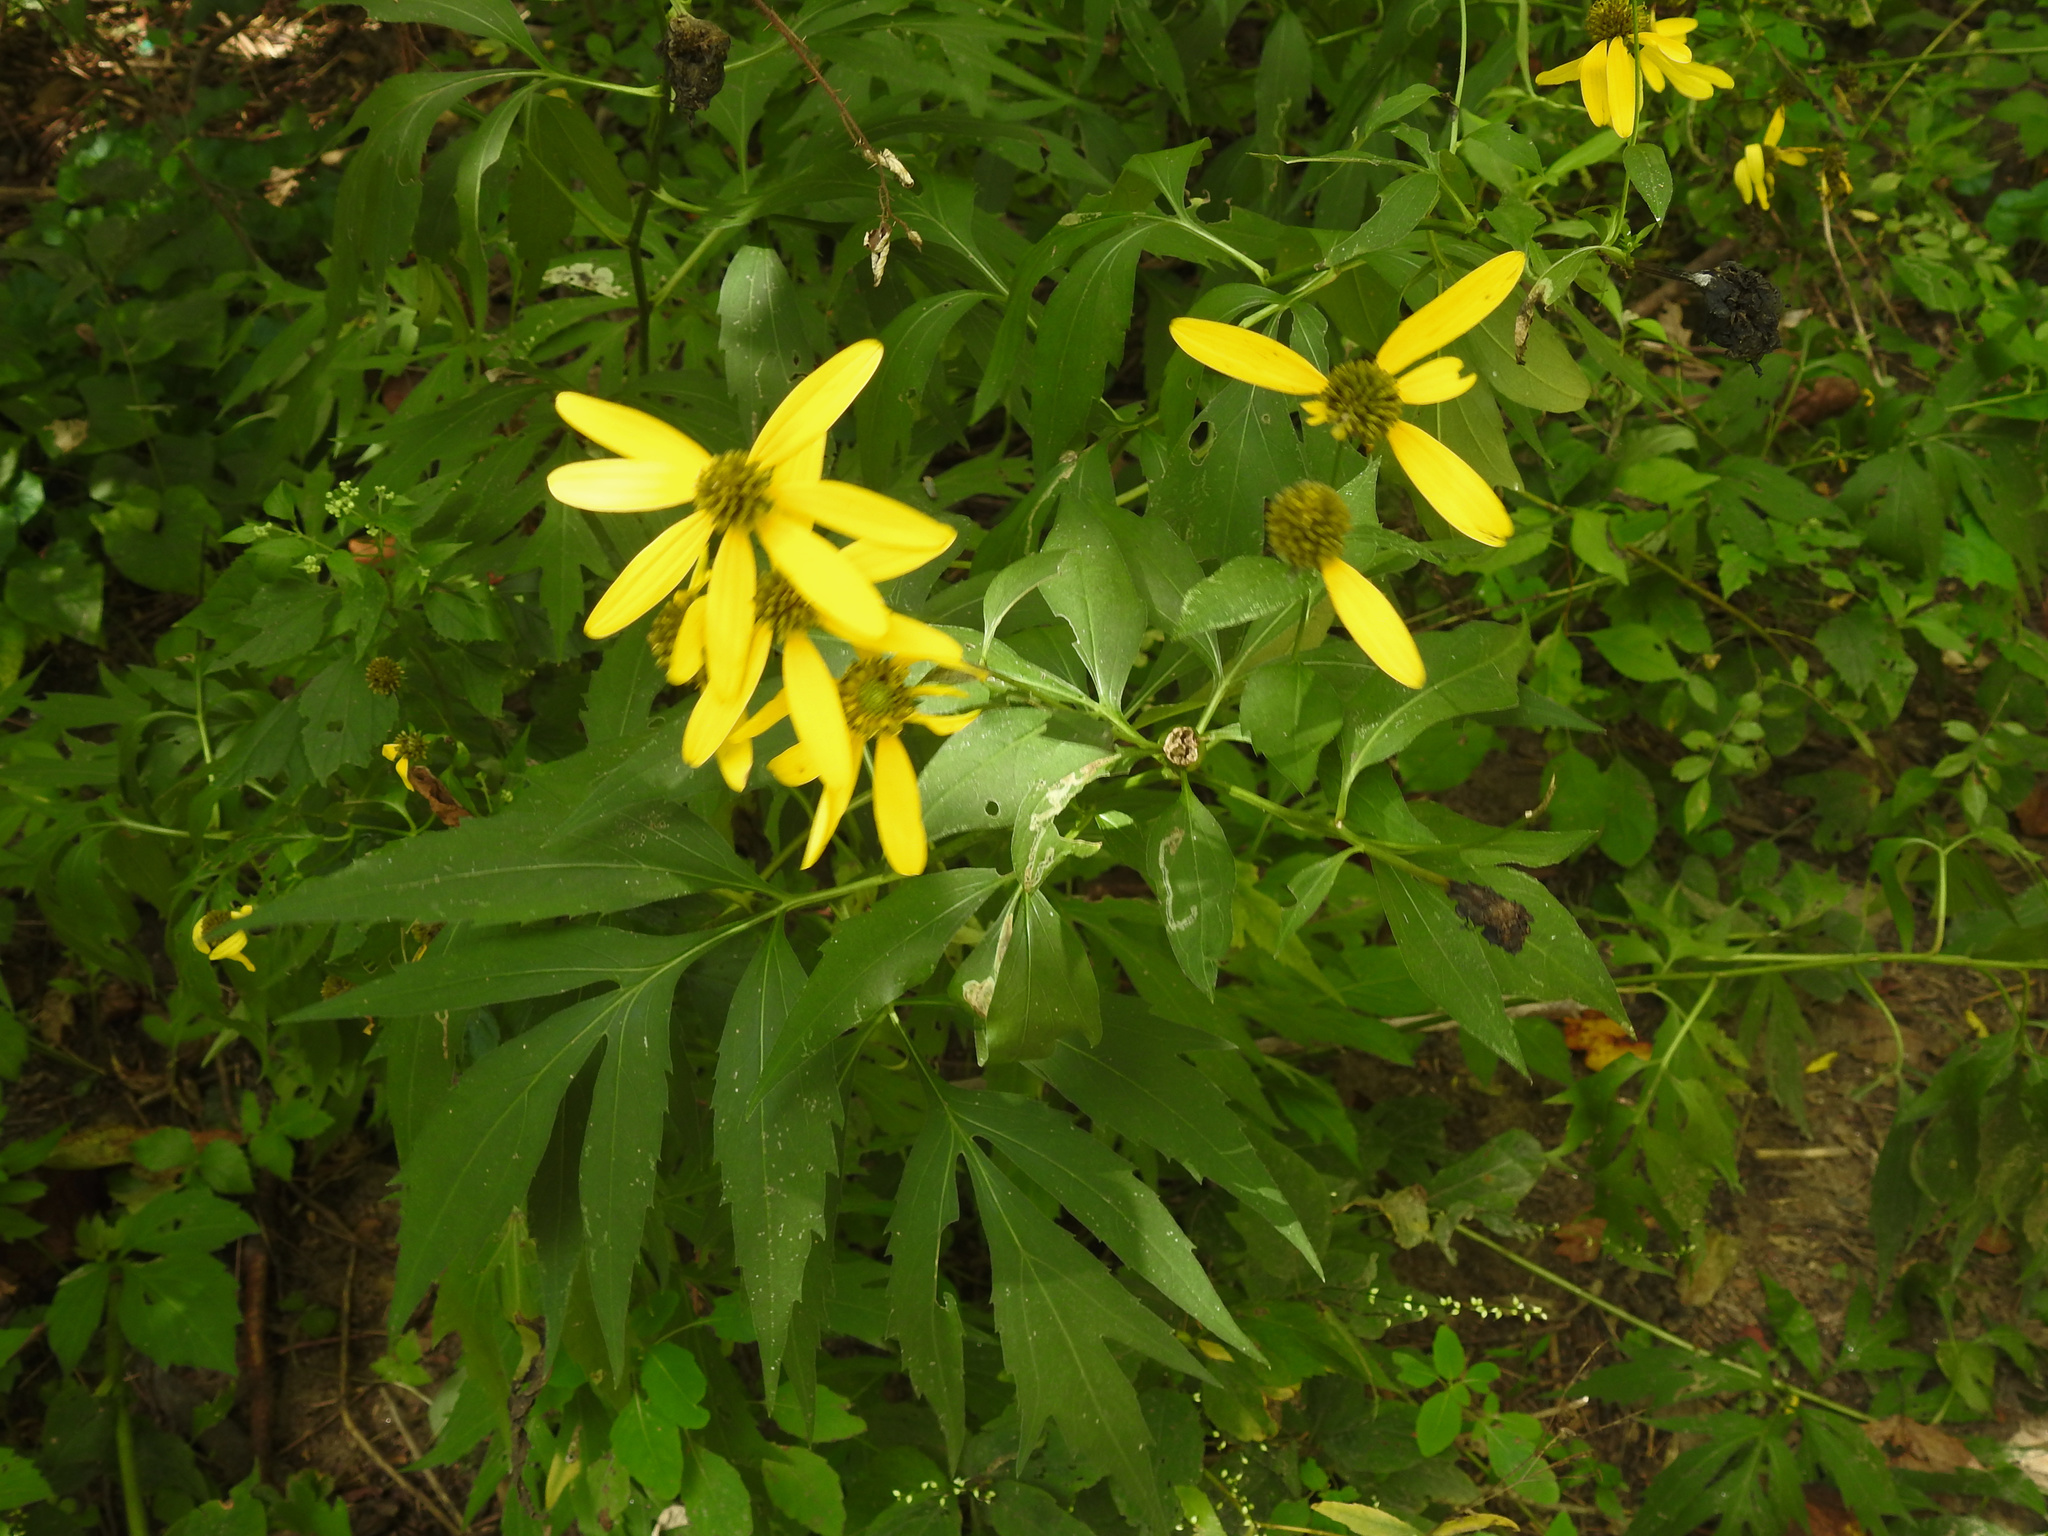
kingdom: Plantae
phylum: Tracheophyta
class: Magnoliopsida
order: Asterales
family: Asteraceae
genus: Rudbeckia
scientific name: Rudbeckia laciniata
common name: Coneflower
